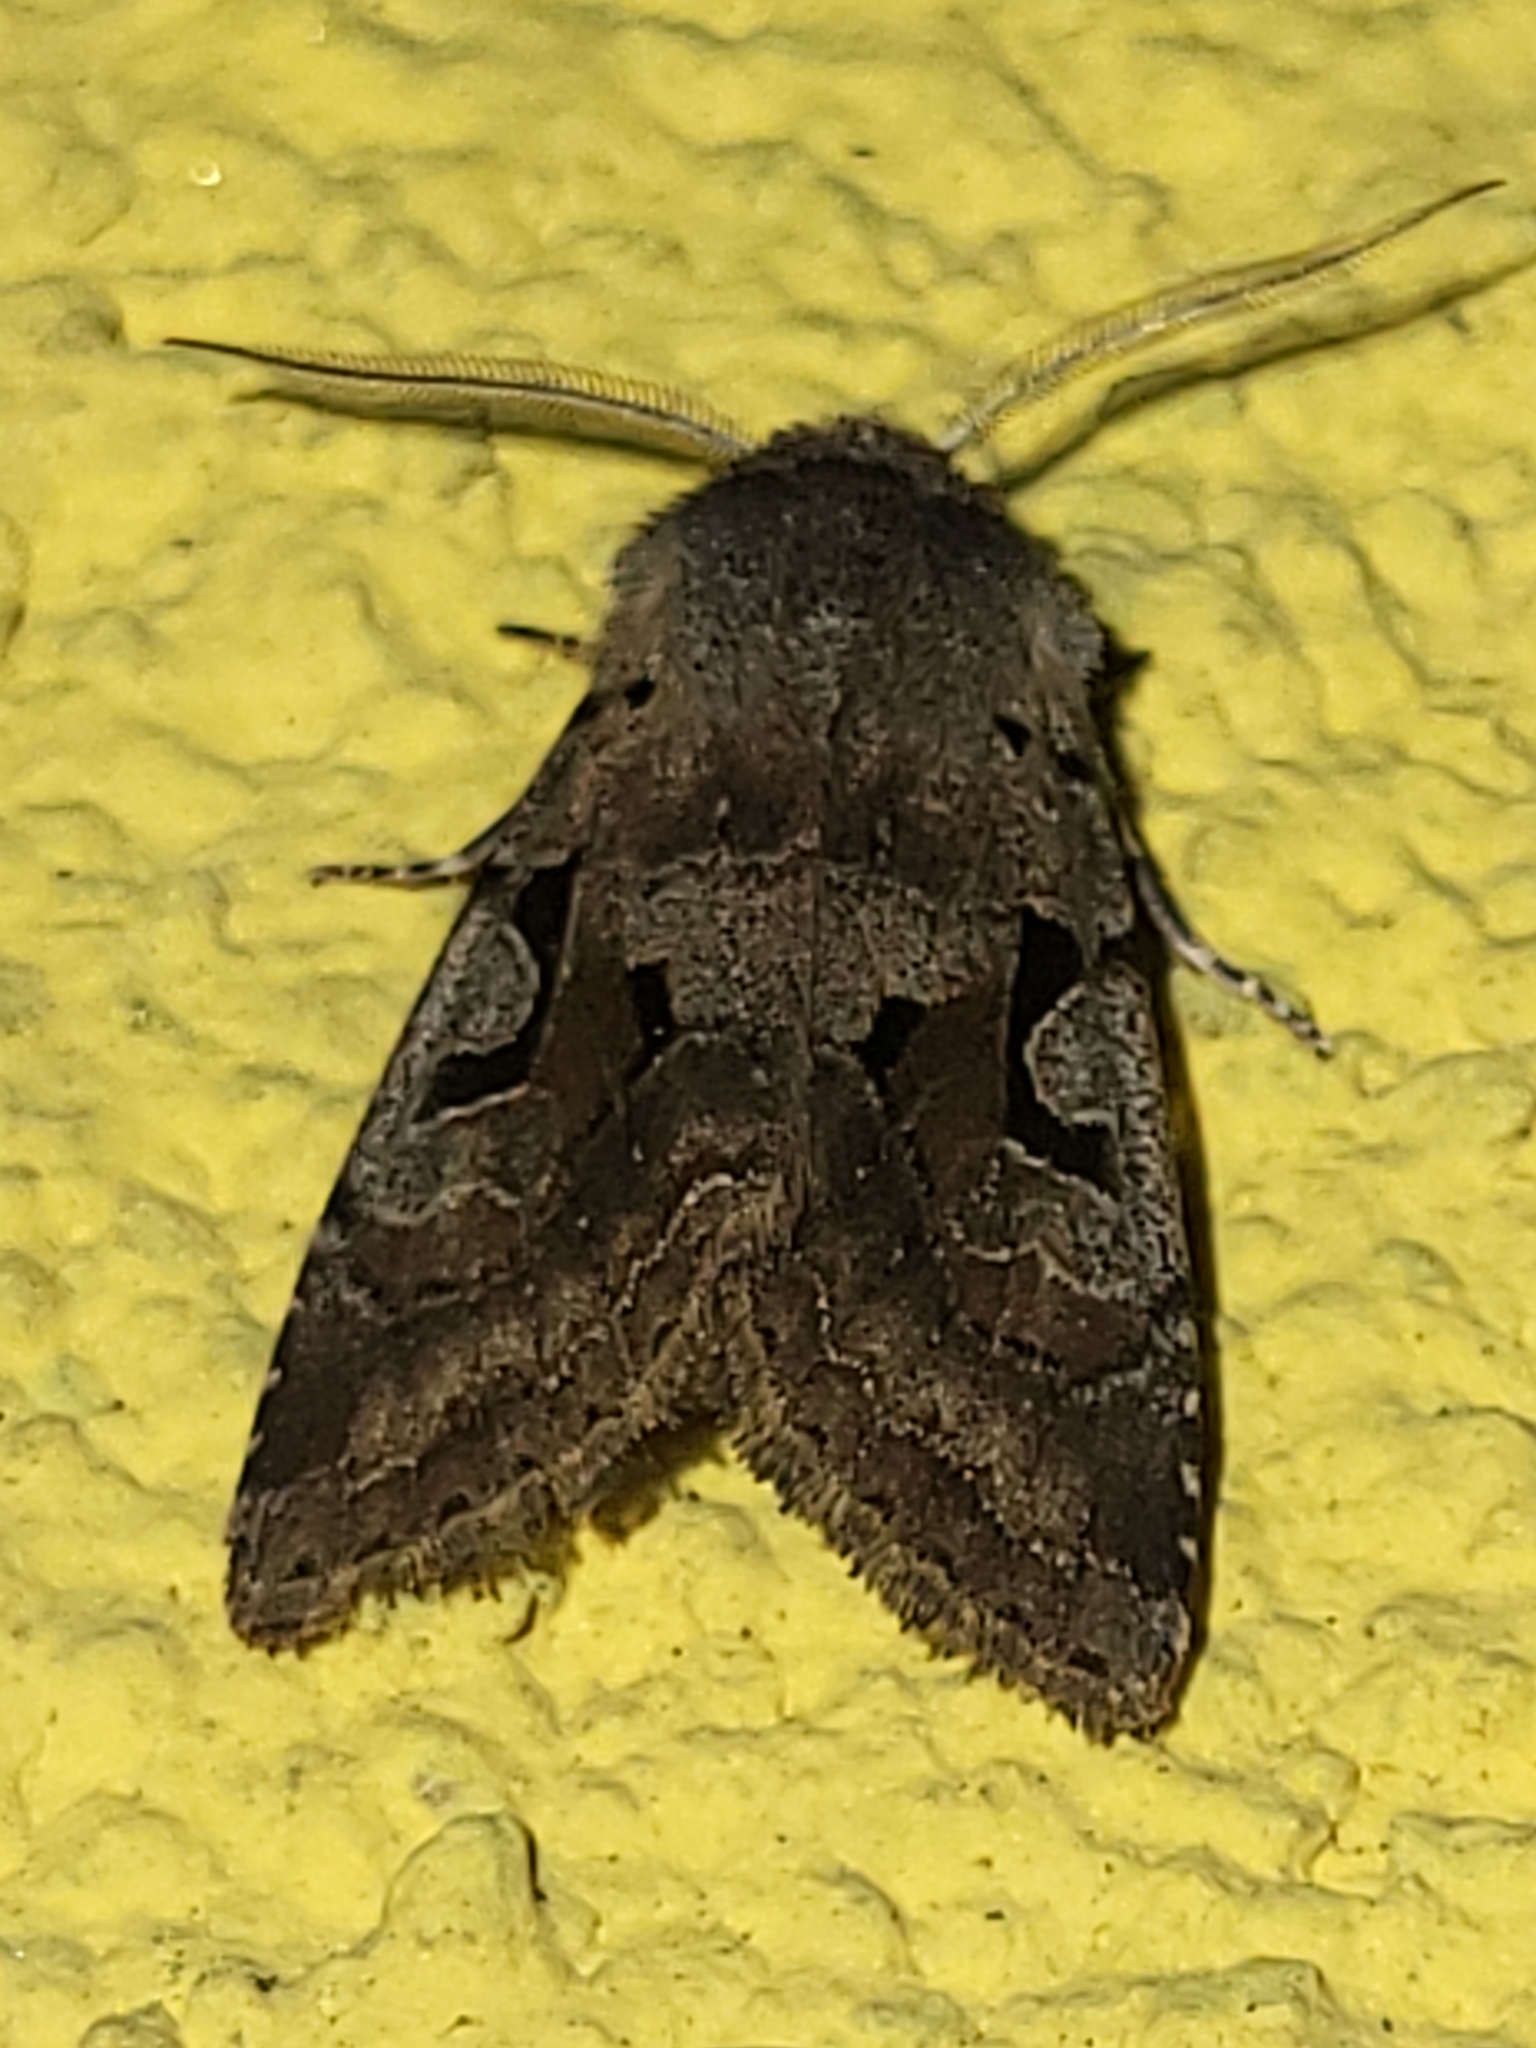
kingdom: Animalia
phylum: Arthropoda
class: Insecta
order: Lepidoptera
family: Noctuidae
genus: Orthosia
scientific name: Orthosia gothica
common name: Hebrew character
